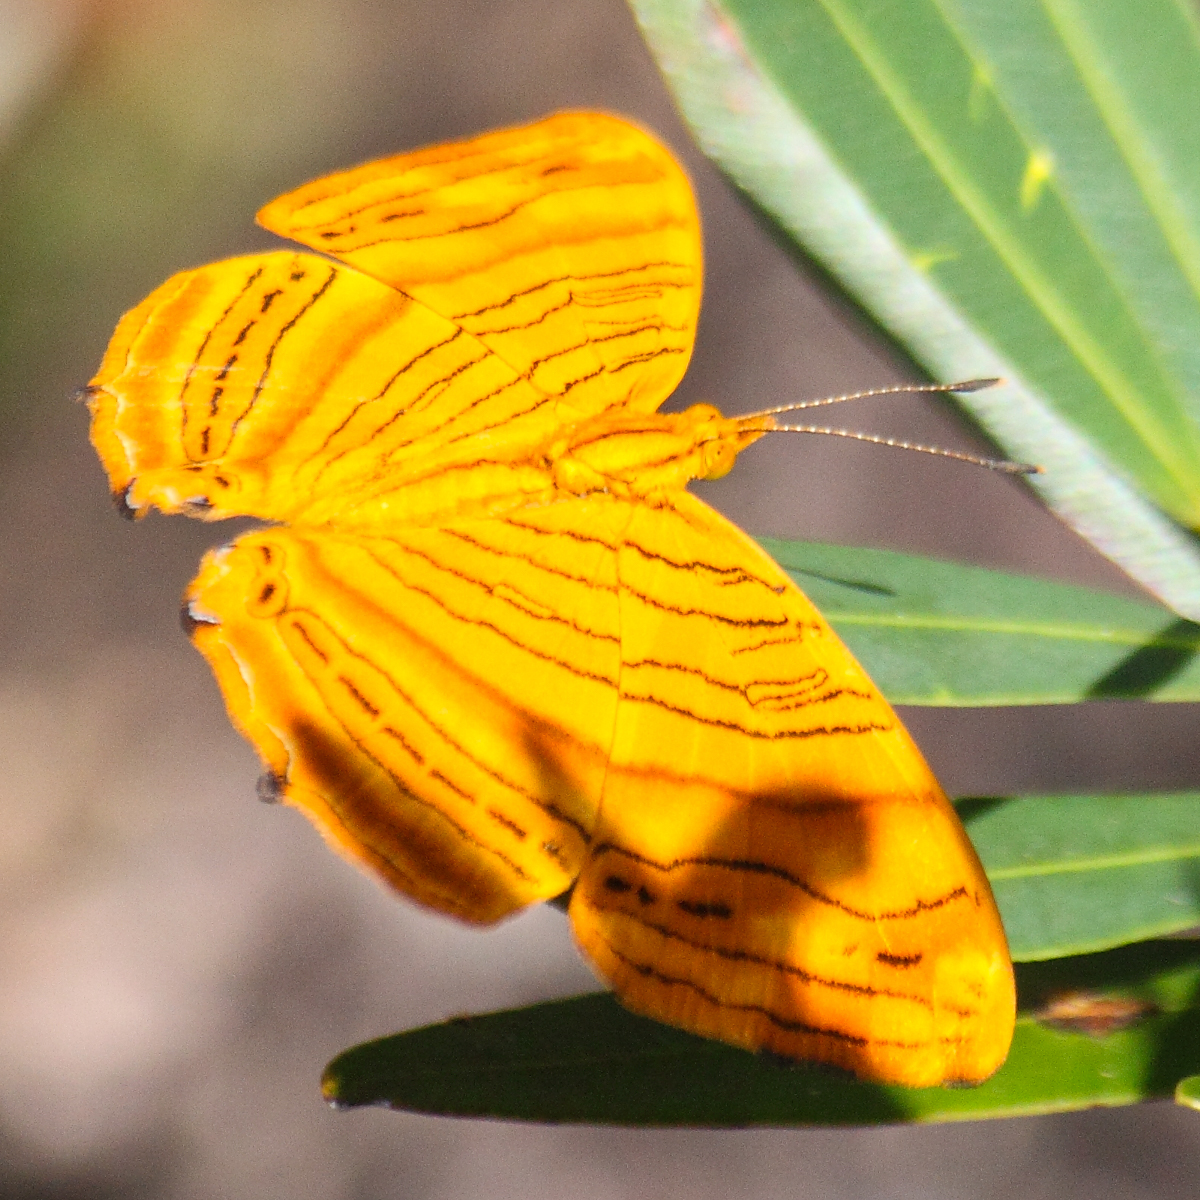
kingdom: Animalia
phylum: Arthropoda
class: Insecta
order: Lepidoptera
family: Nymphalidae
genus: Chersonesia
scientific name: Chersonesia intermedia
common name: Intermediate maplet
